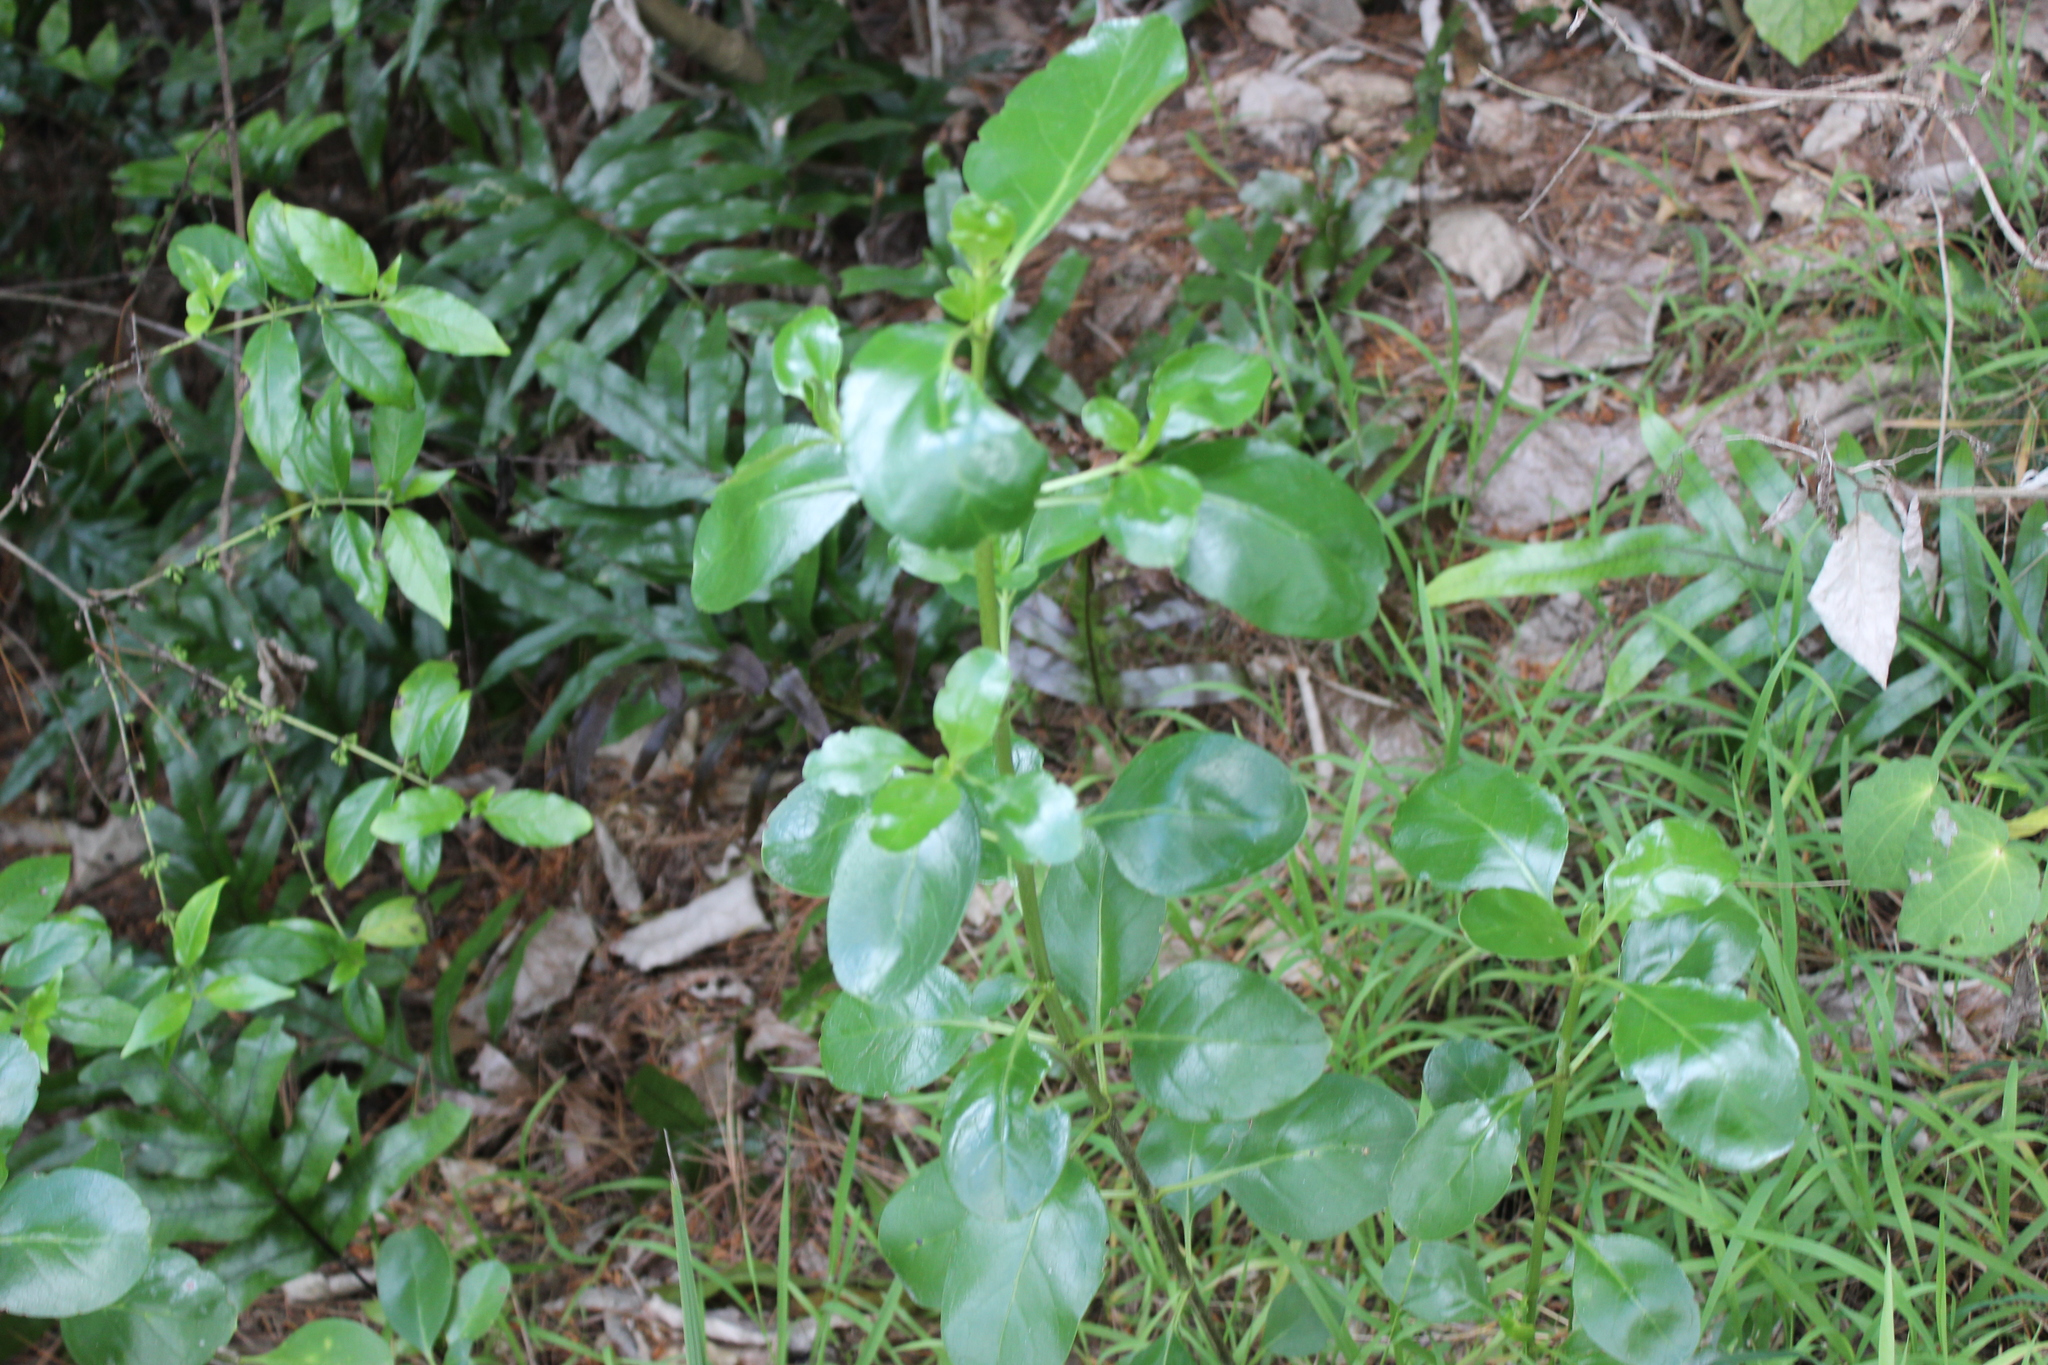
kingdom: Plantae
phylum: Tracheophyta
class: Magnoliopsida
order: Gentianales
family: Rubiaceae
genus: Coprosma
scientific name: Coprosma repens
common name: Tree bedstraw
